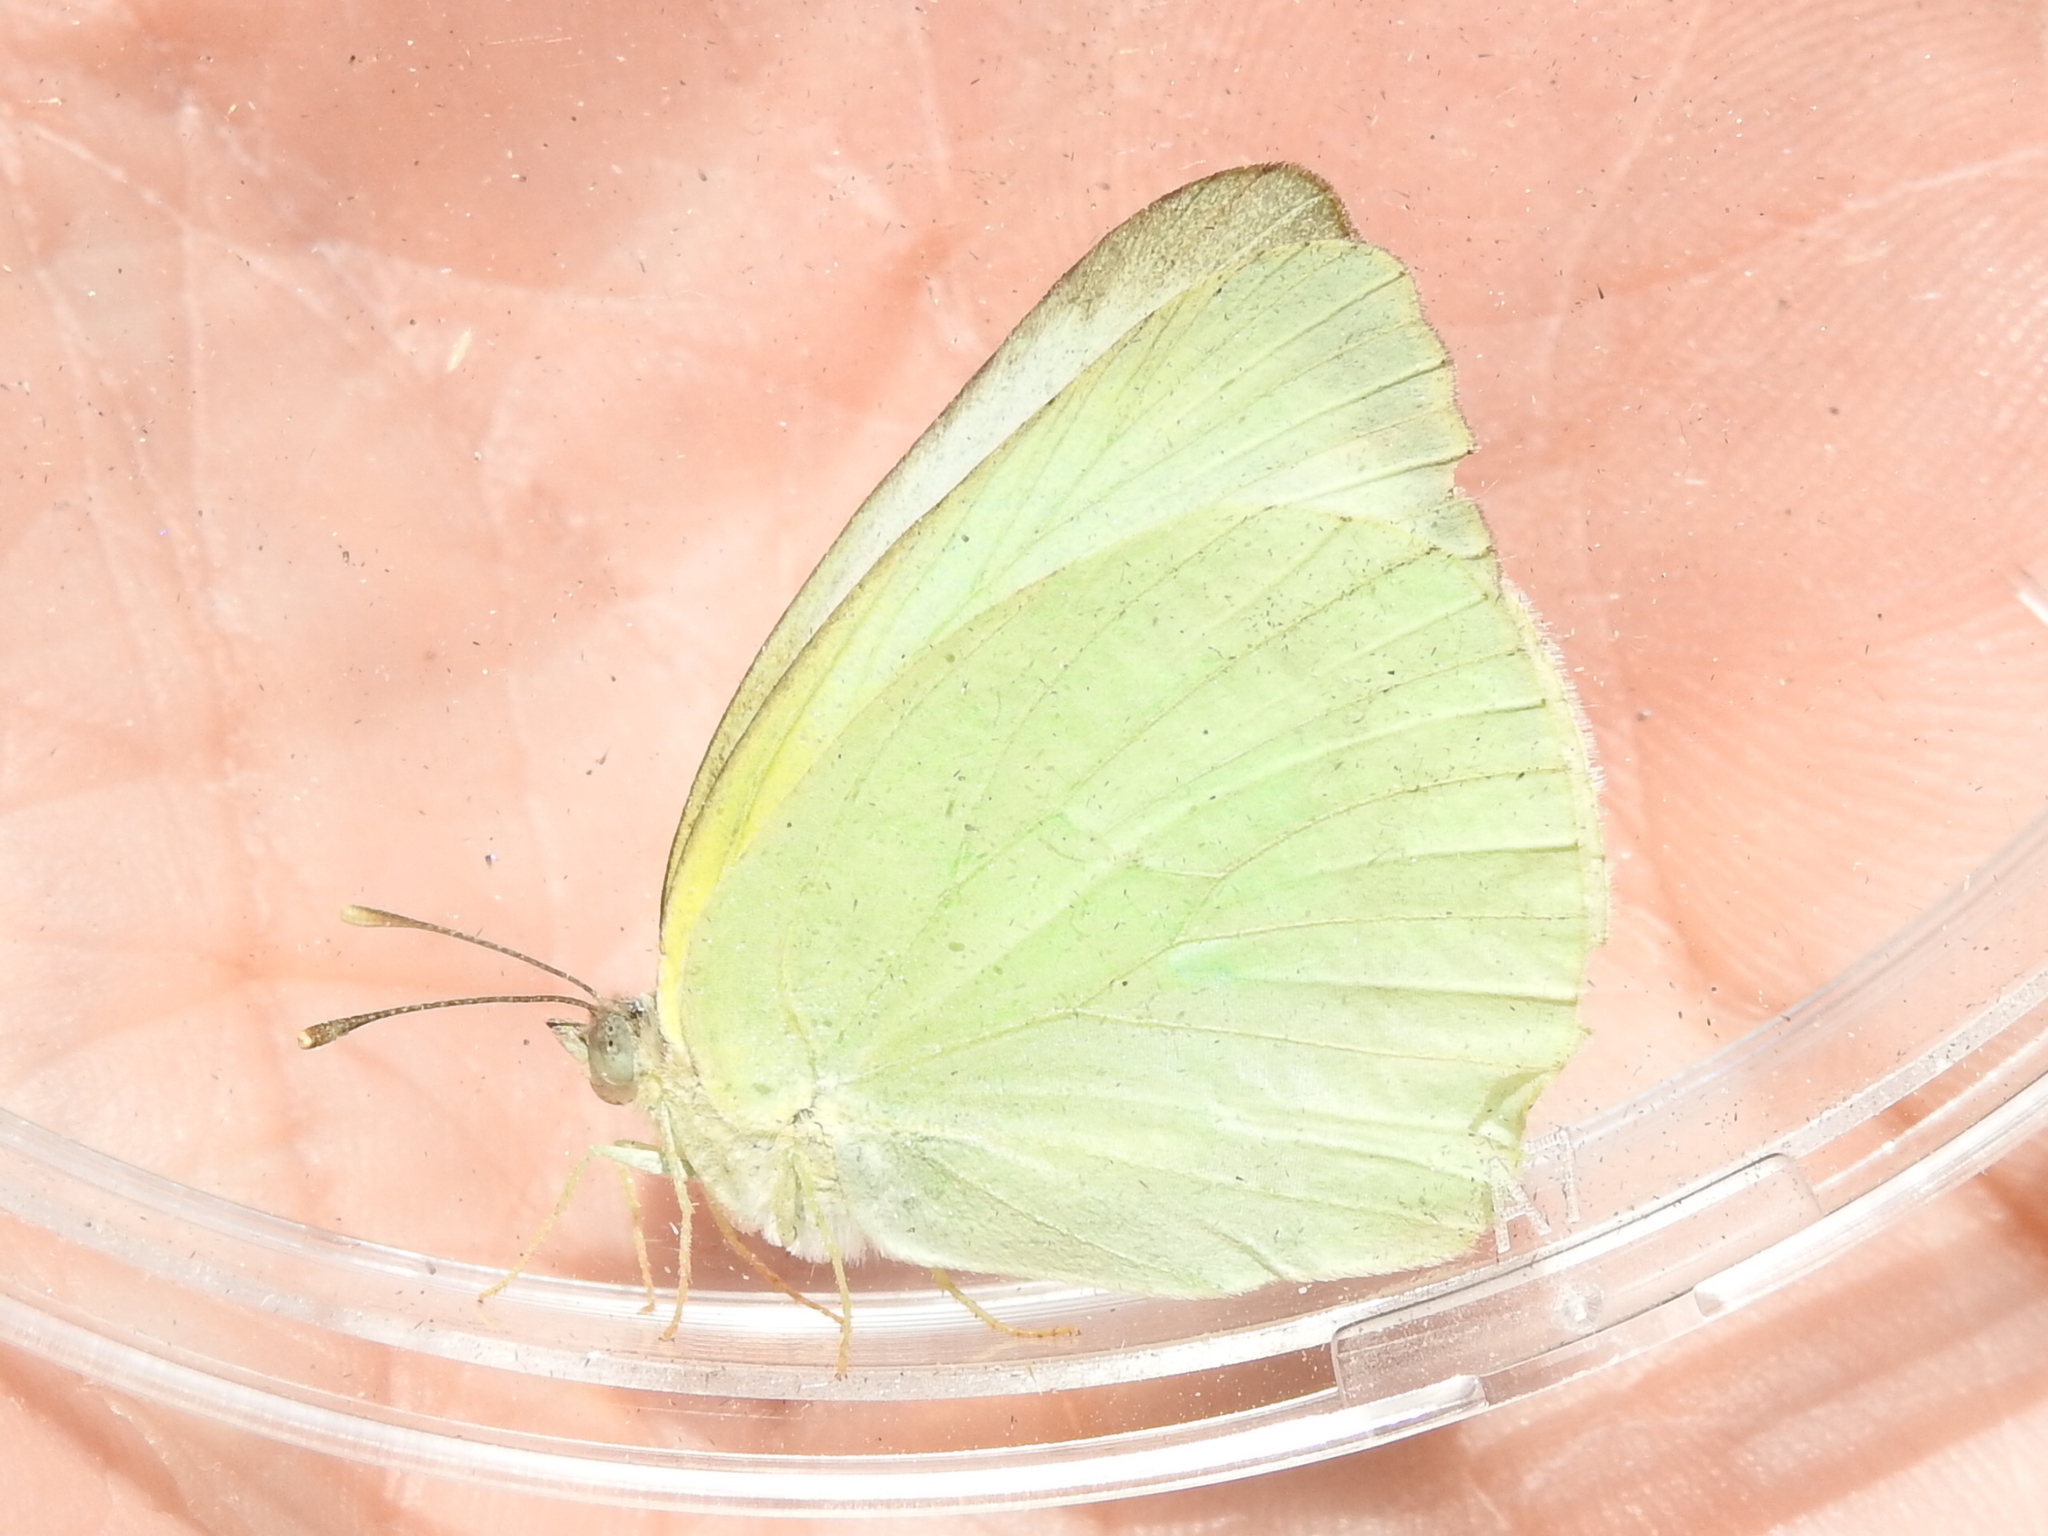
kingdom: Animalia
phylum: Arthropoda
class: Insecta
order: Lepidoptera
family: Pieridae
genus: Kricogonia
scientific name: Kricogonia lyside
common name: Guayacan sulphur,
